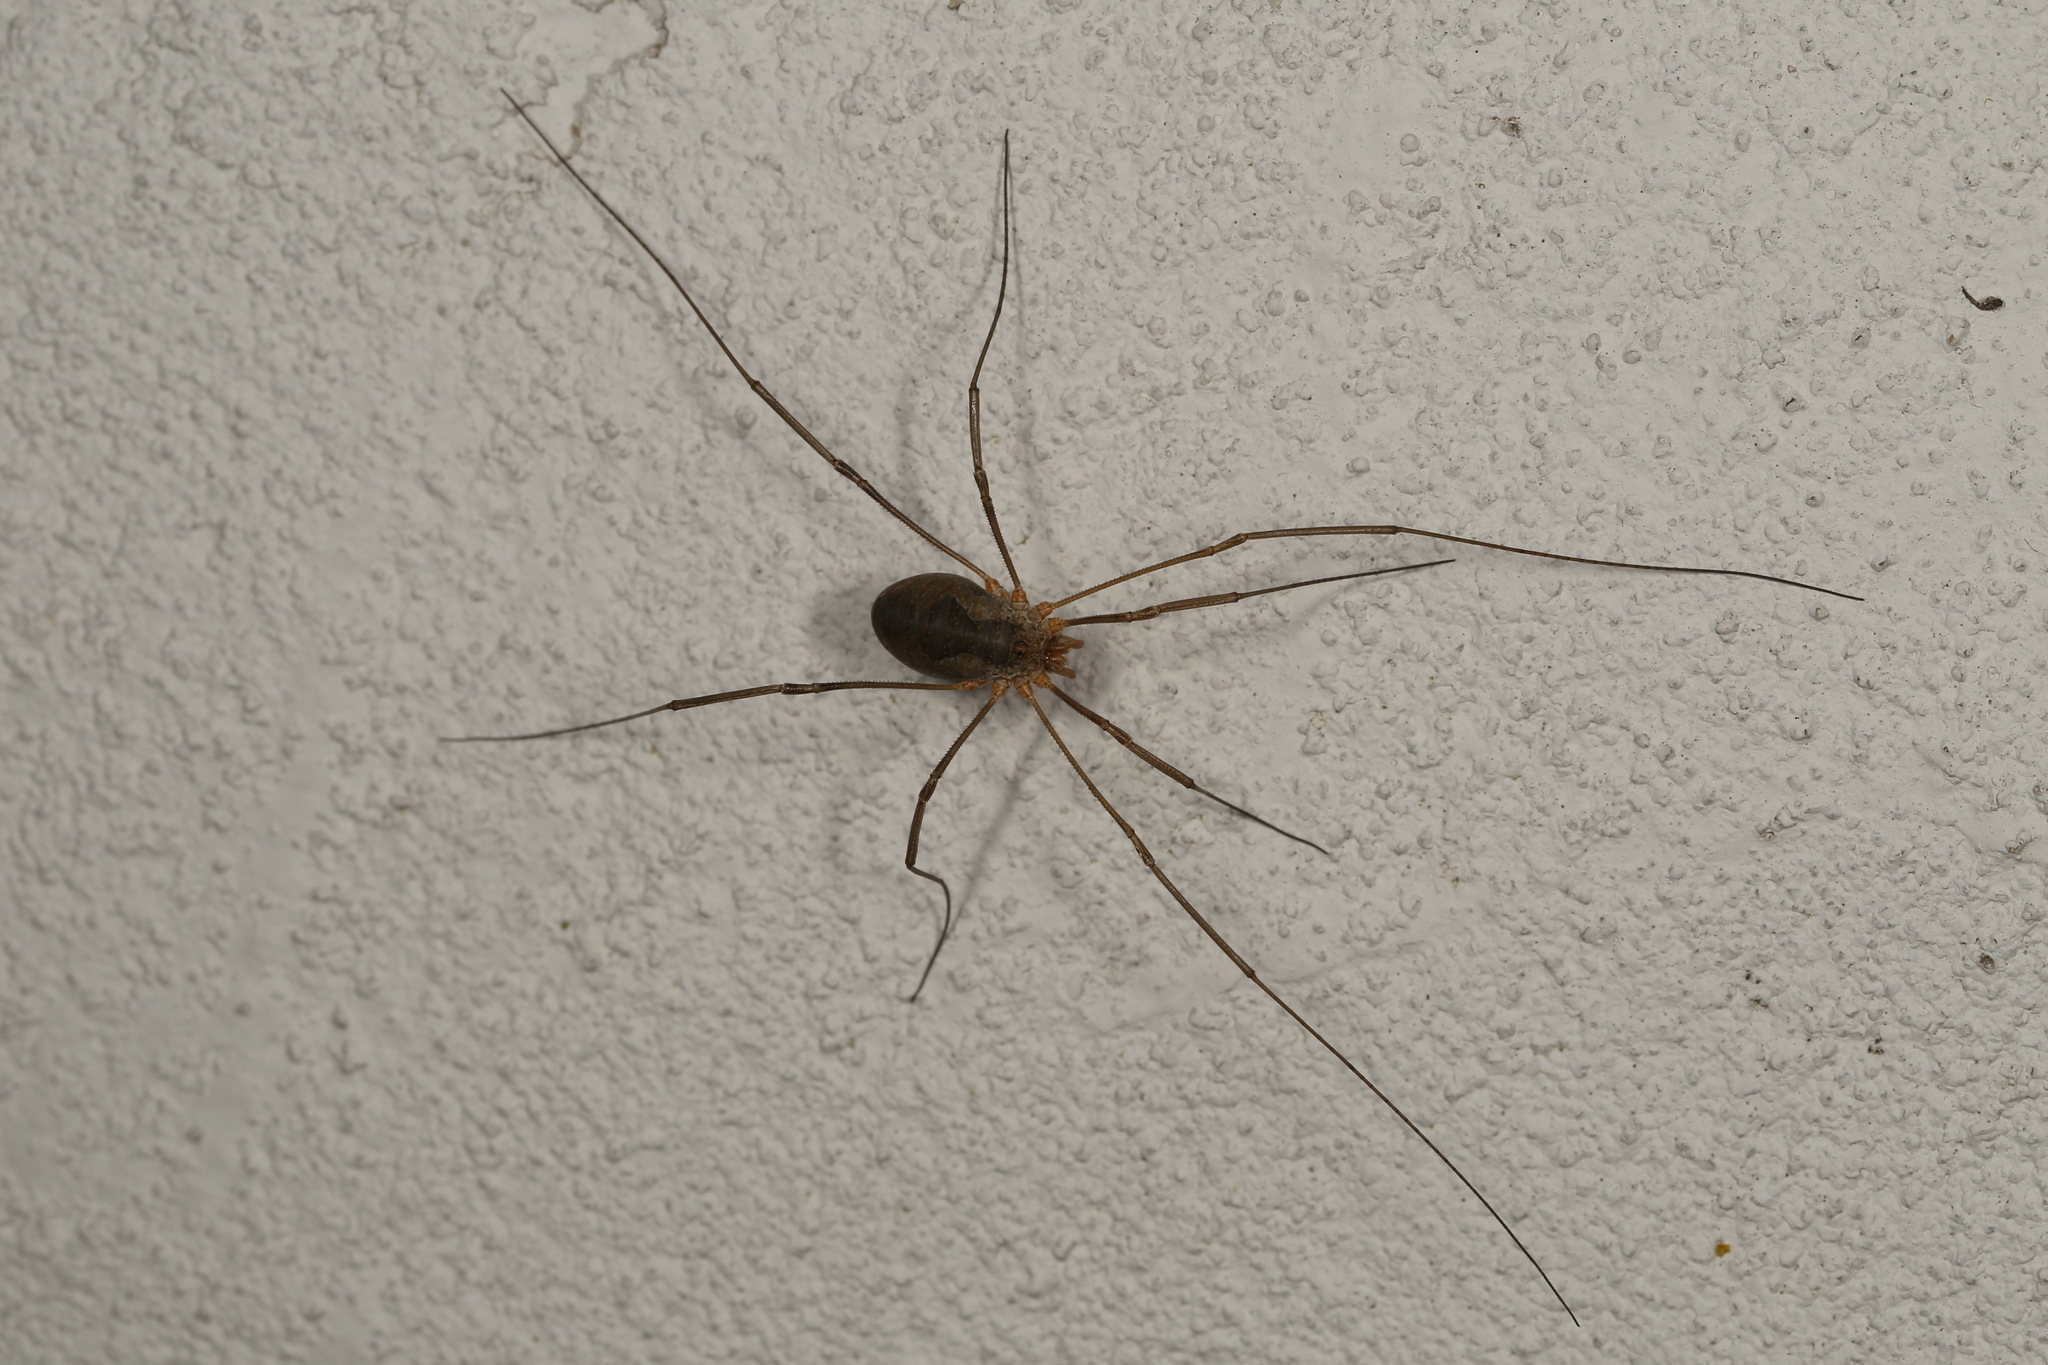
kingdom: Animalia
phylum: Arthropoda
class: Arachnida
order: Opiliones
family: Phalangiidae
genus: Phalangium
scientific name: Phalangium opilio
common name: Daddy longleg
